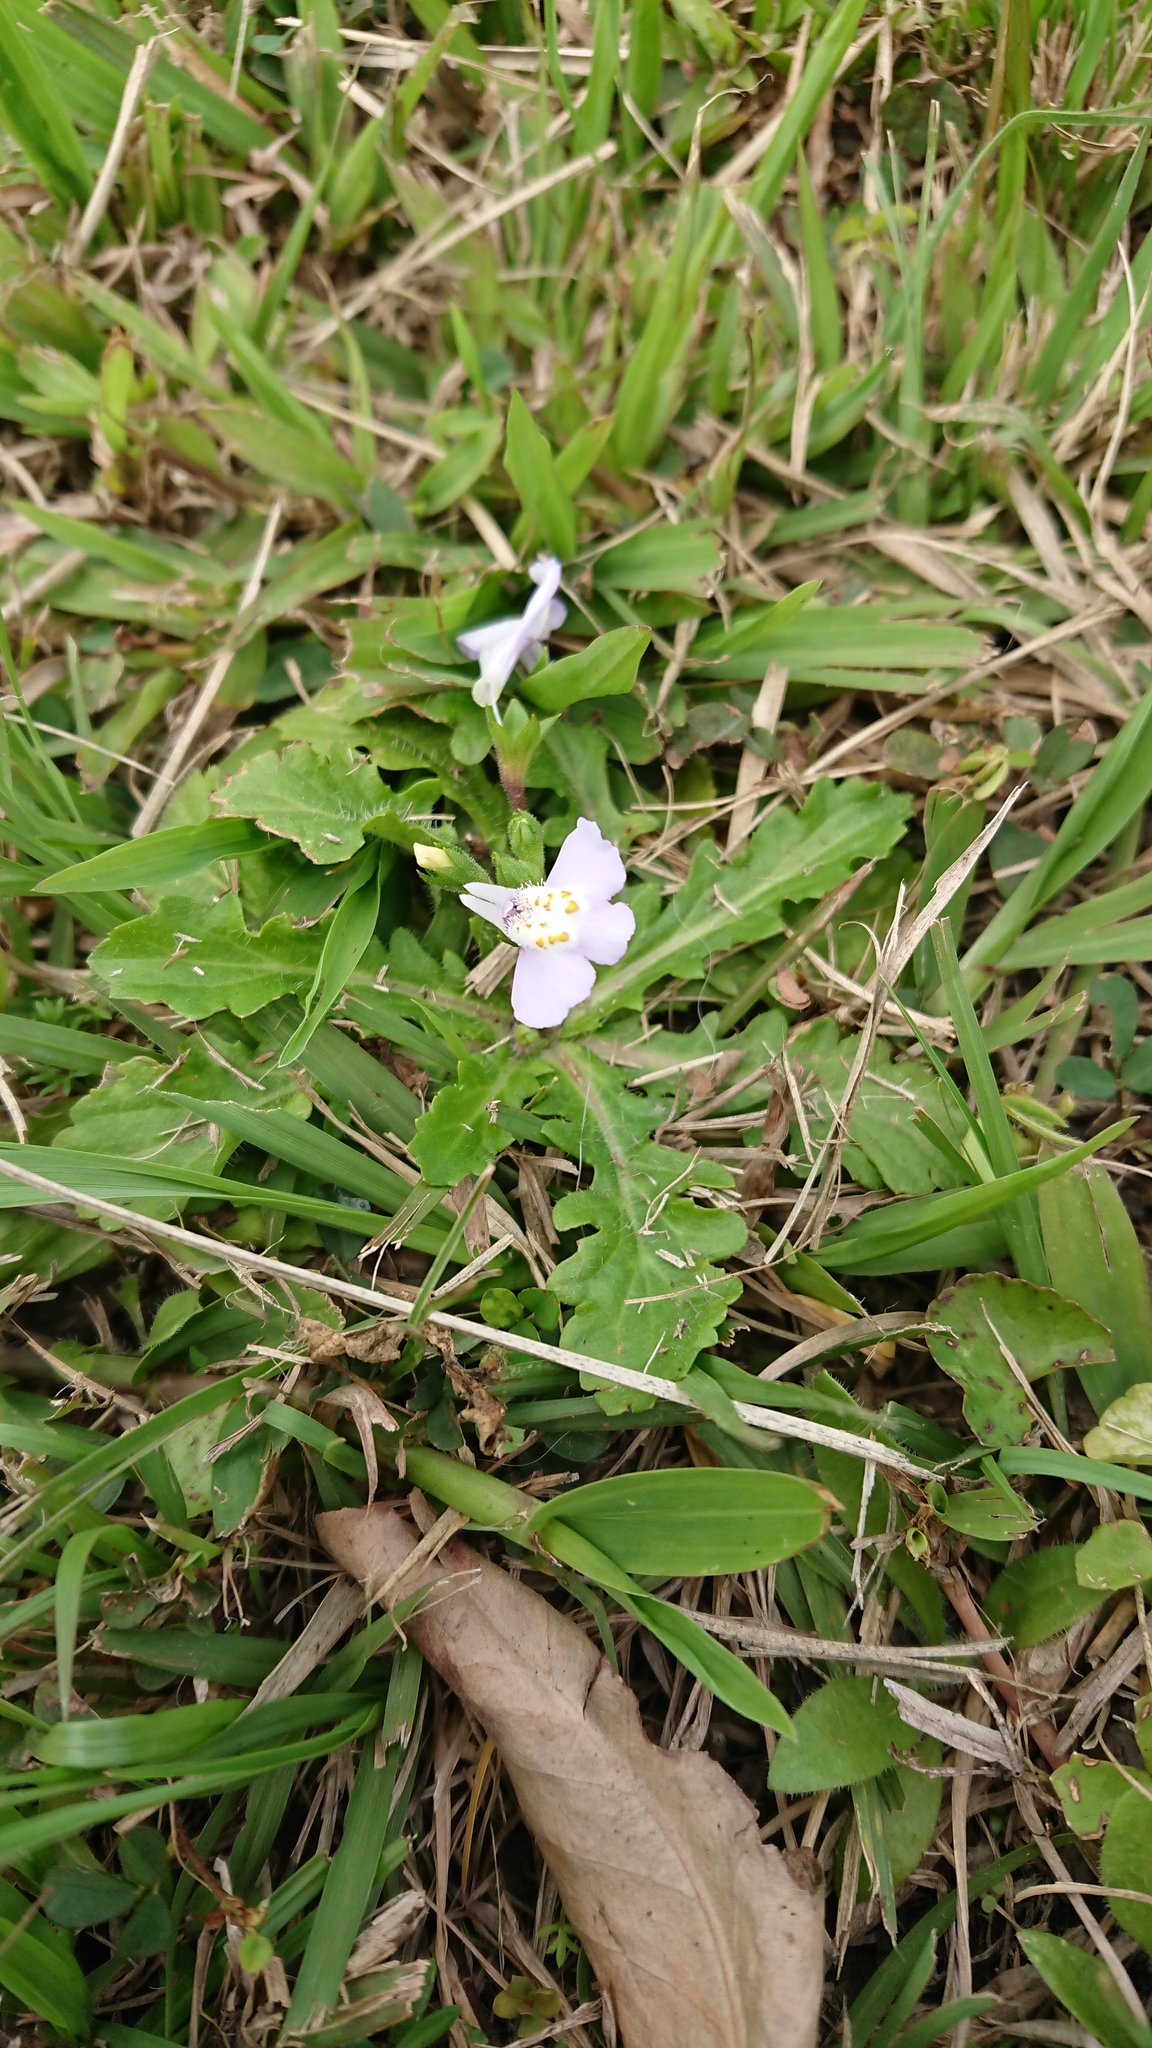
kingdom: Plantae
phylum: Tracheophyta
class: Magnoliopsida
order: Lamiales
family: Mazaceae
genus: Mazus
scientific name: Mazus fauriei
